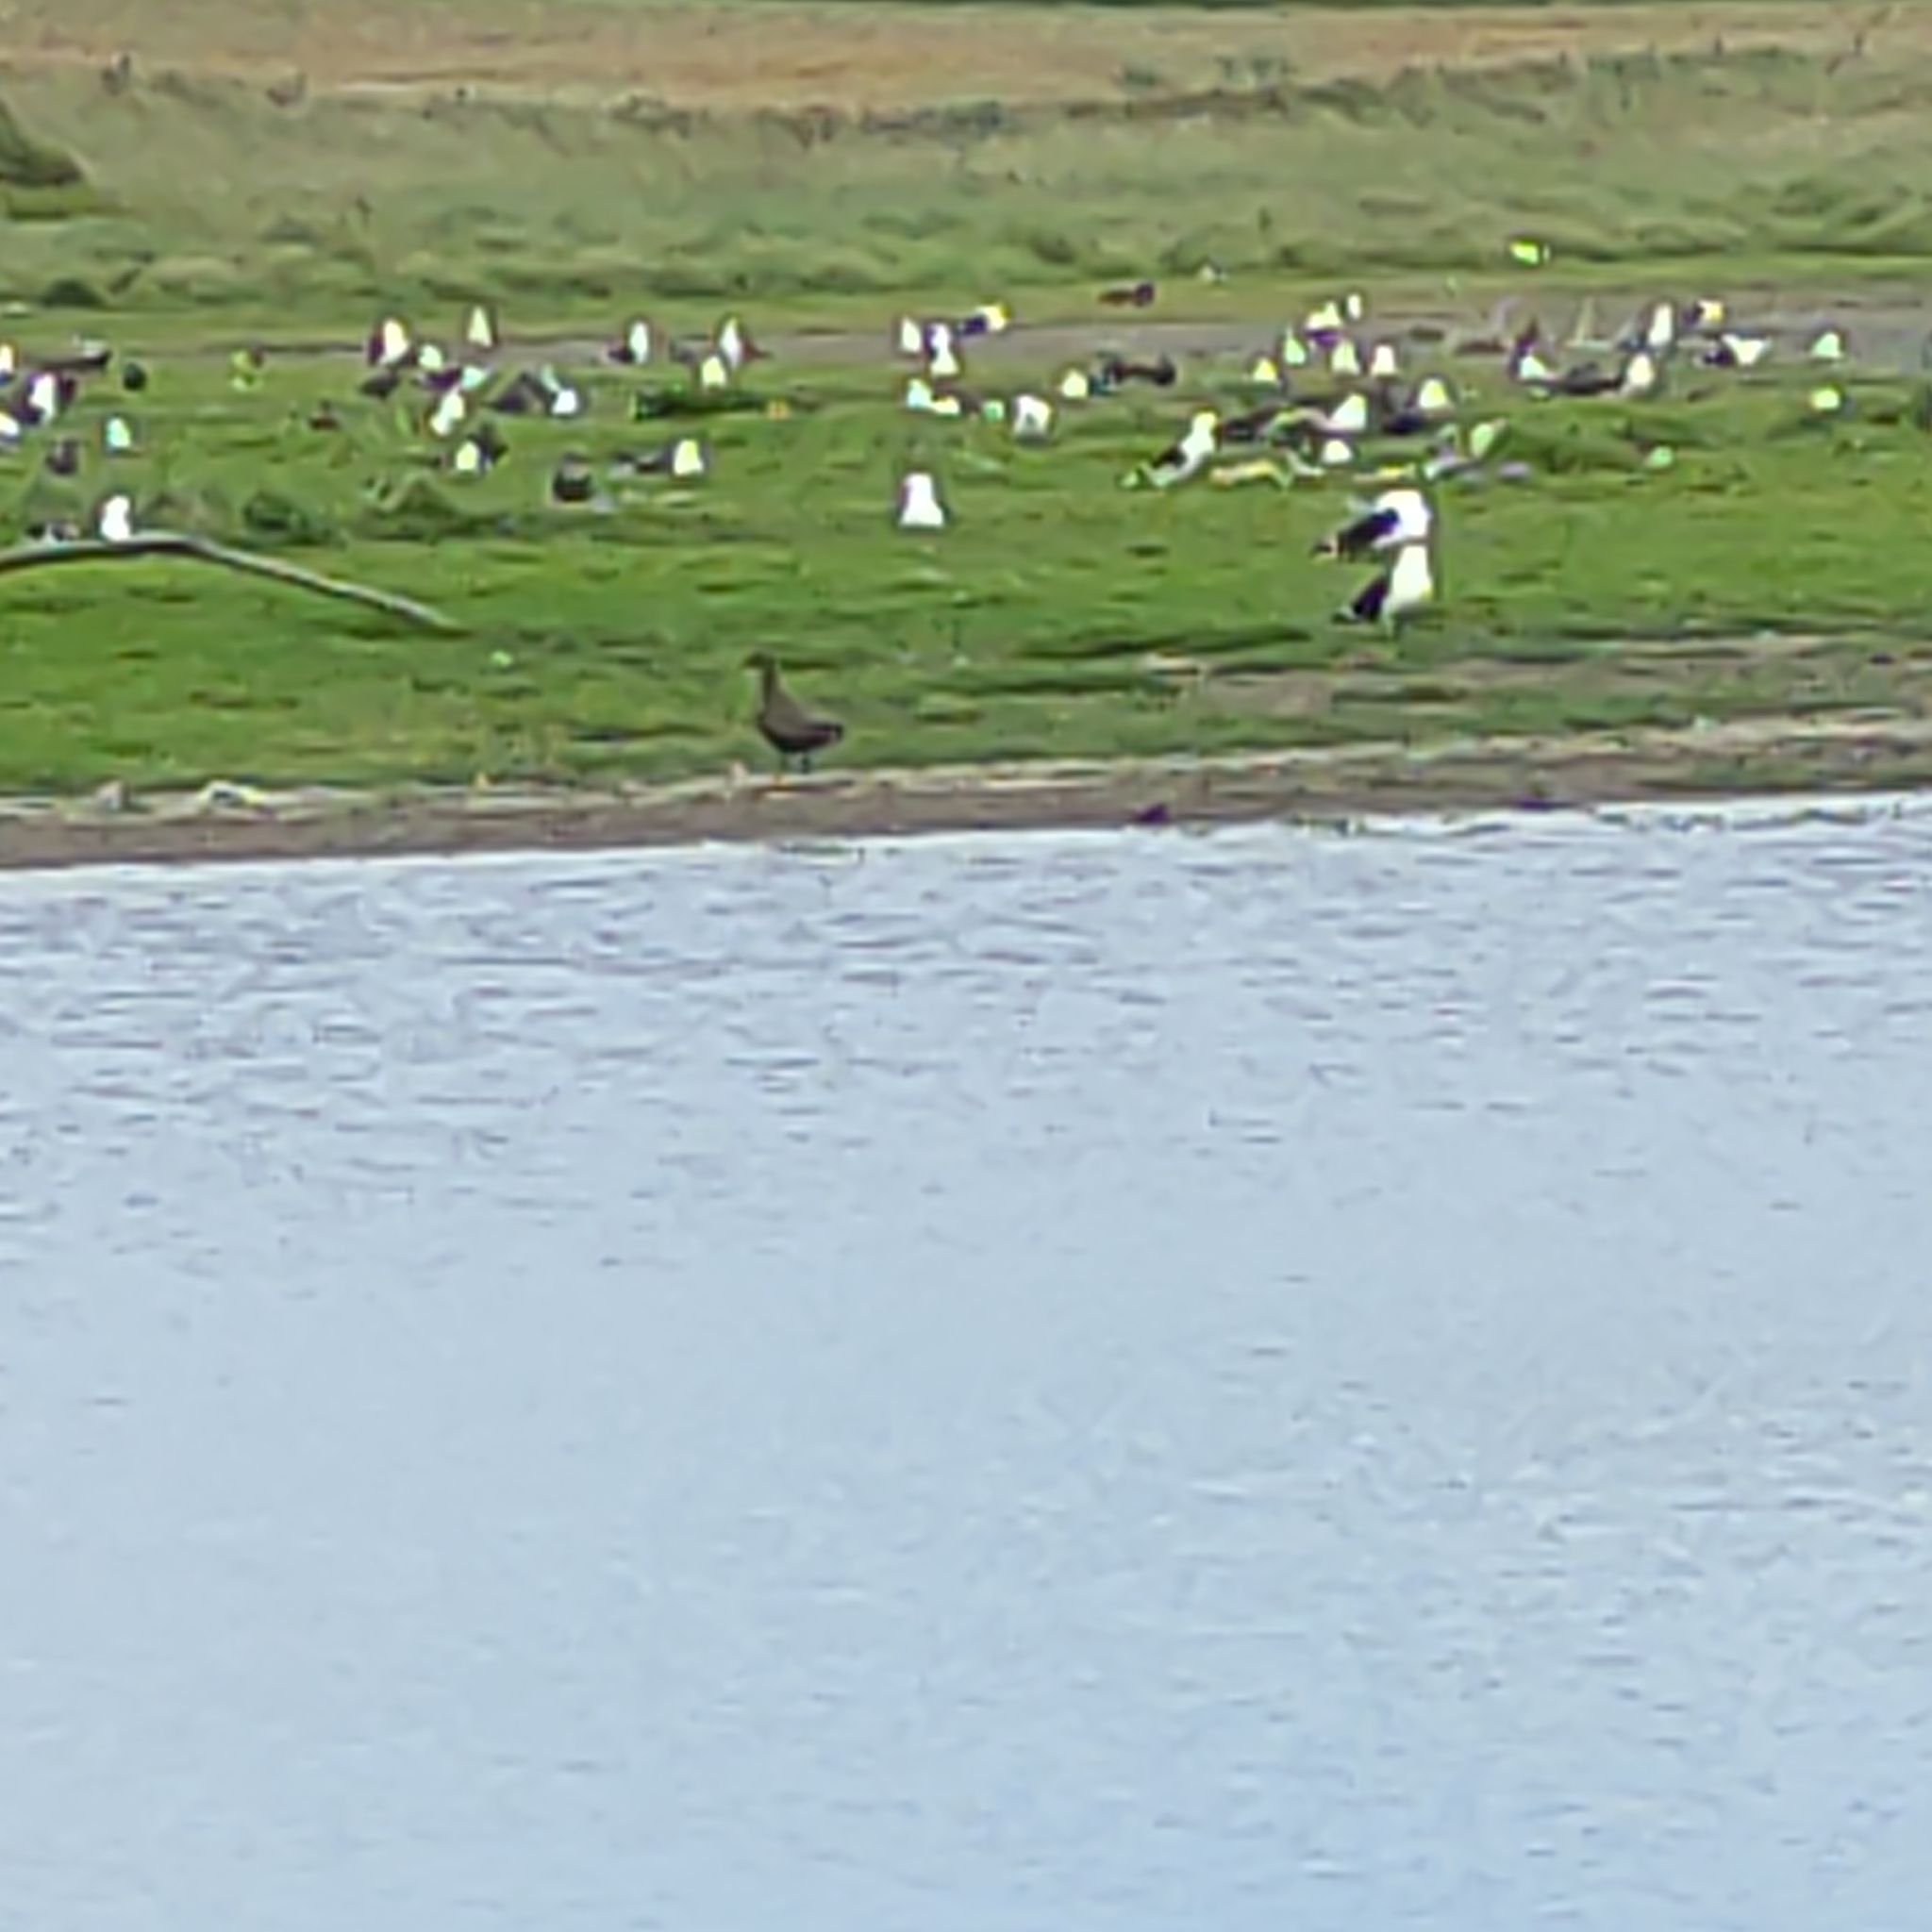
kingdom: Animalia
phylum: Chordata
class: Aves
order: Charadriiformes
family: Laridae
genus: Larus
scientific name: Larus dominicanus
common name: Kelp gull
